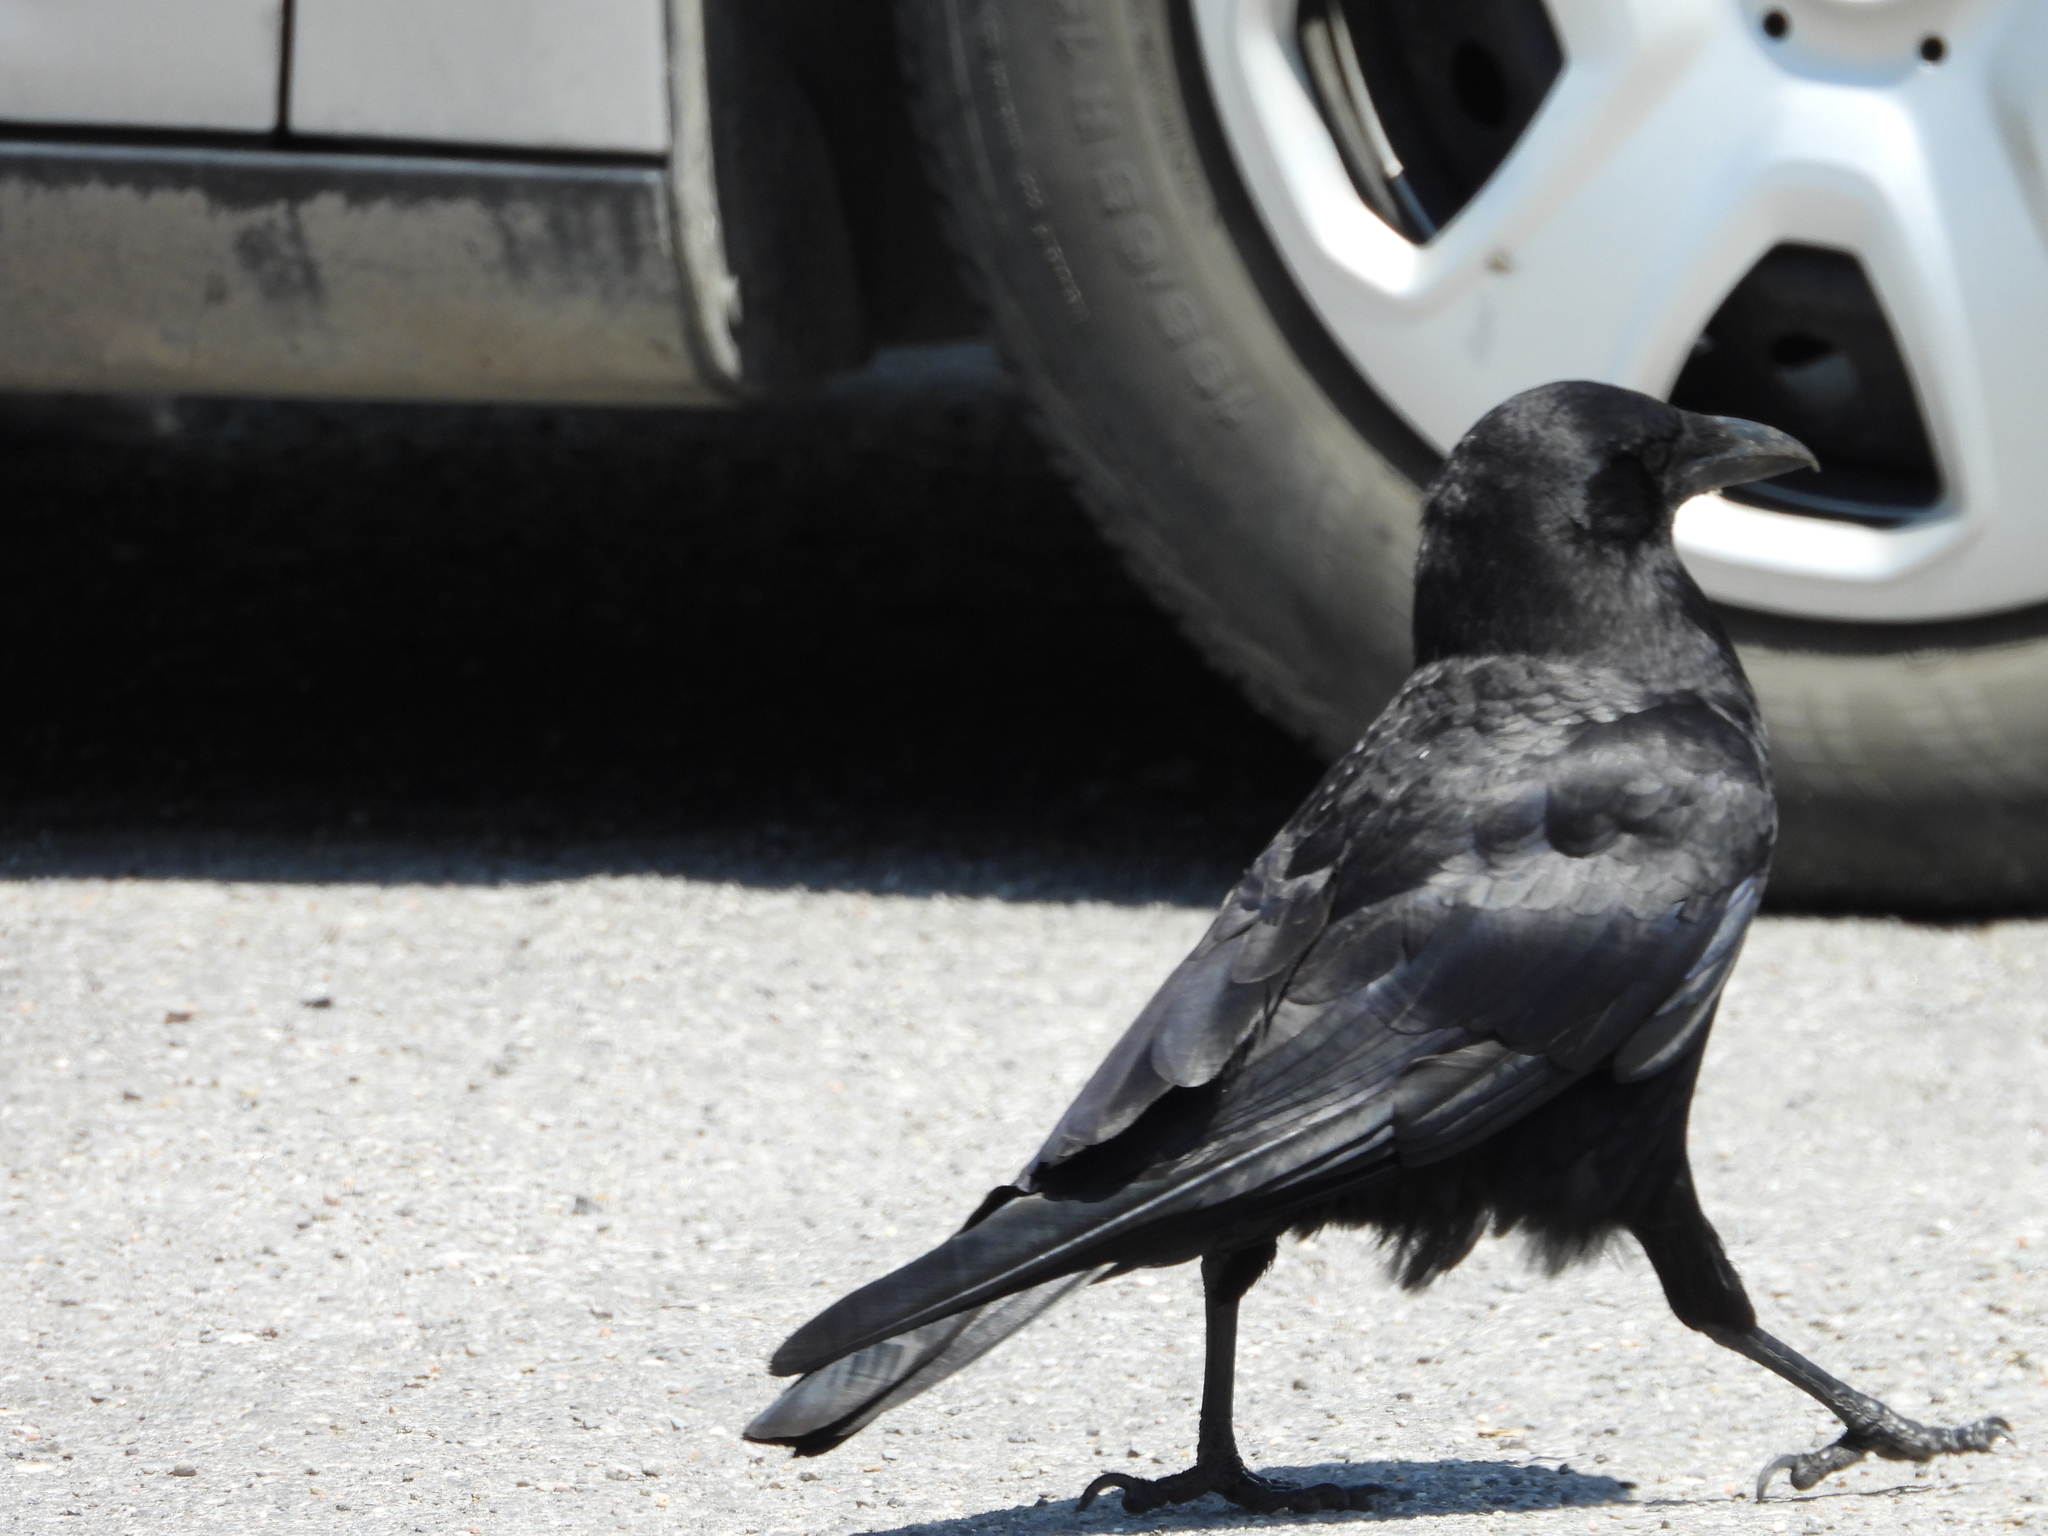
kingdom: Animalia
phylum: Chordata
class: Aves
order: Passeriformes
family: Corvidae
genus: Corvus
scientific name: Corvus brachyrhynchos
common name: American crow
